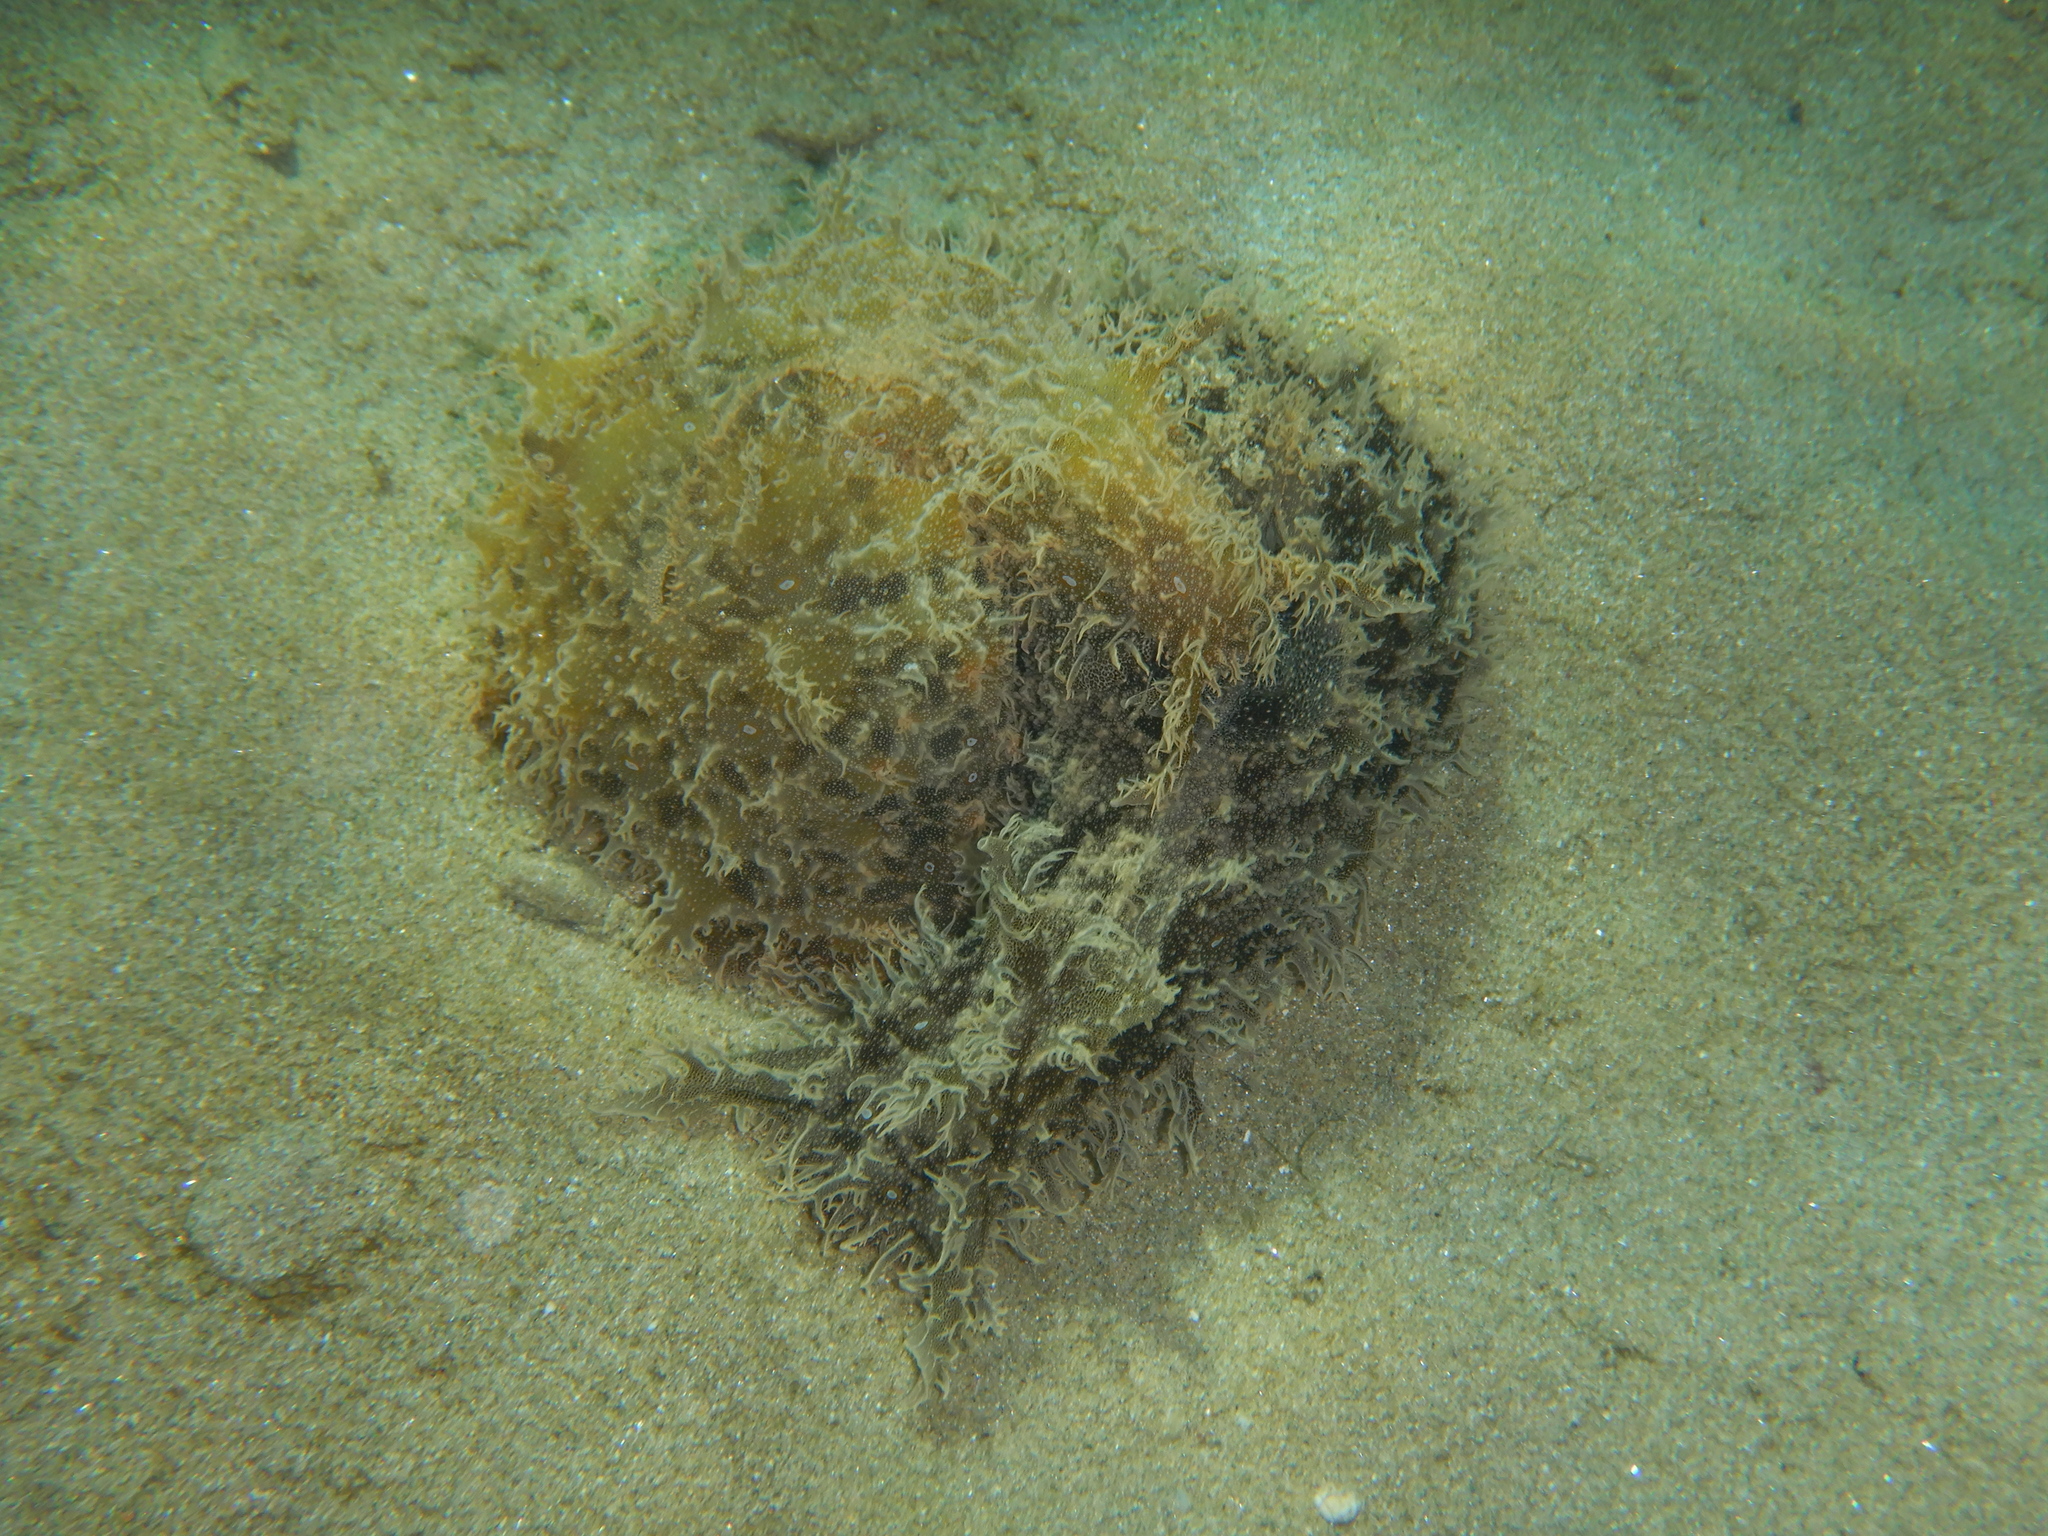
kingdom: Animalia
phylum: Mollusca
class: Gastropoda
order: Aplysiida
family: Aplysiidae
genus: Bursatella
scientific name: Bursatella leachii
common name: Shaggy sea hare
